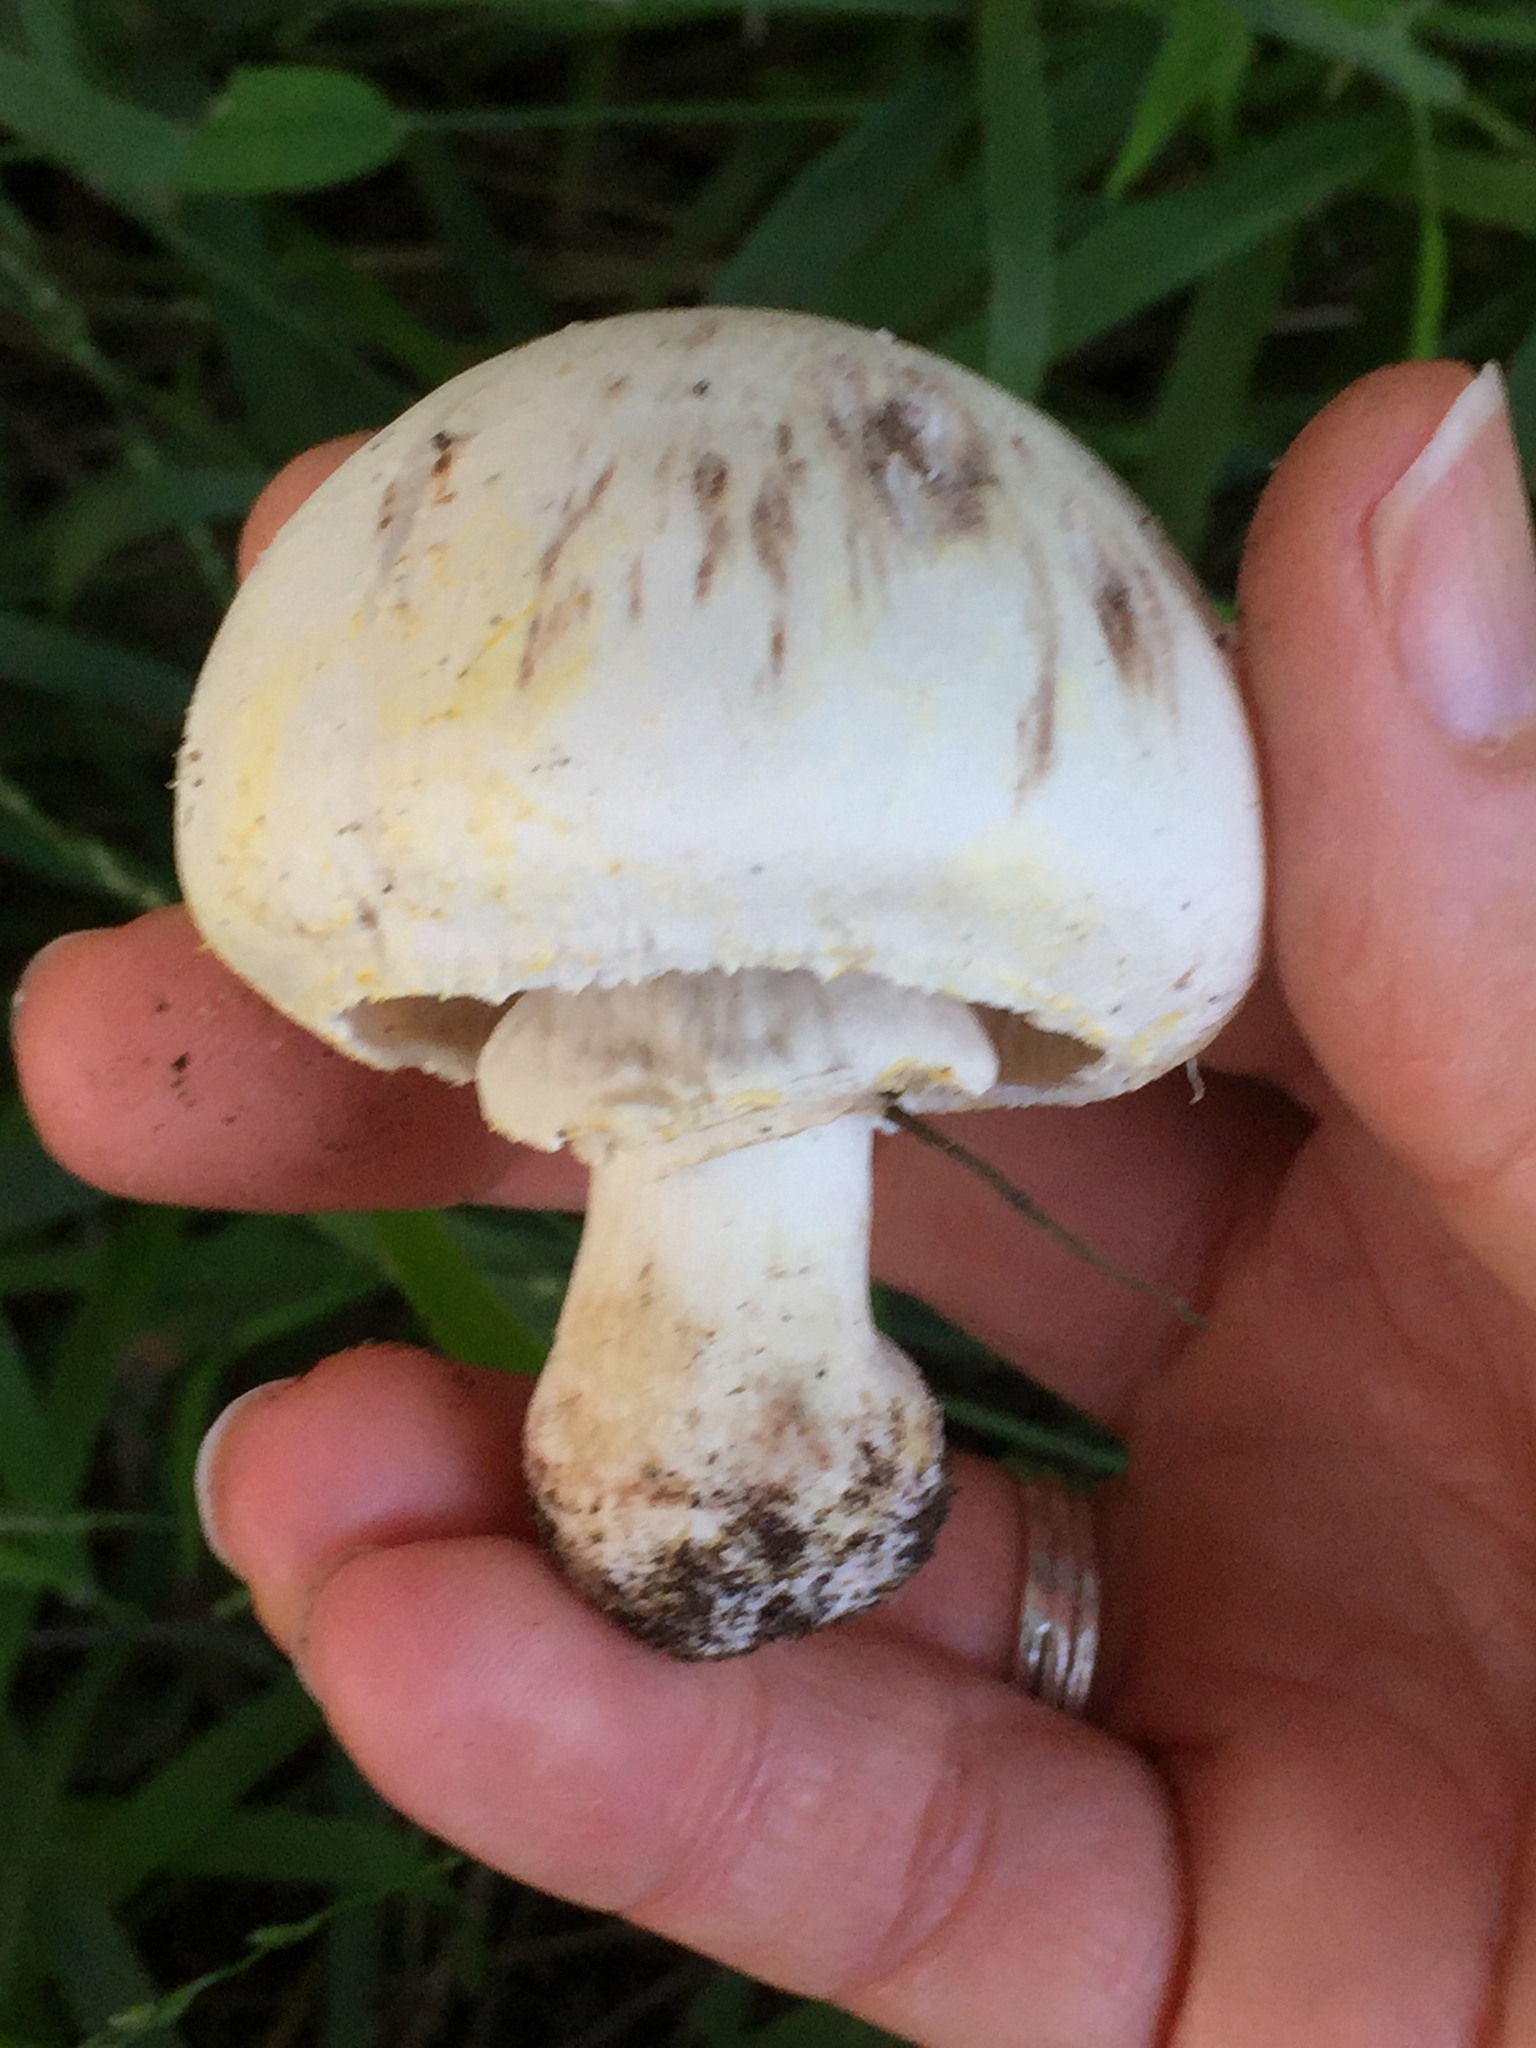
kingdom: Fungi
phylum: Basidiomycota
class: Agaricomycetes
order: Agaricales
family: Agaricaceae
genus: Agaricus
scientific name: Agaricus xanthodermus
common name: Yellow stainer
